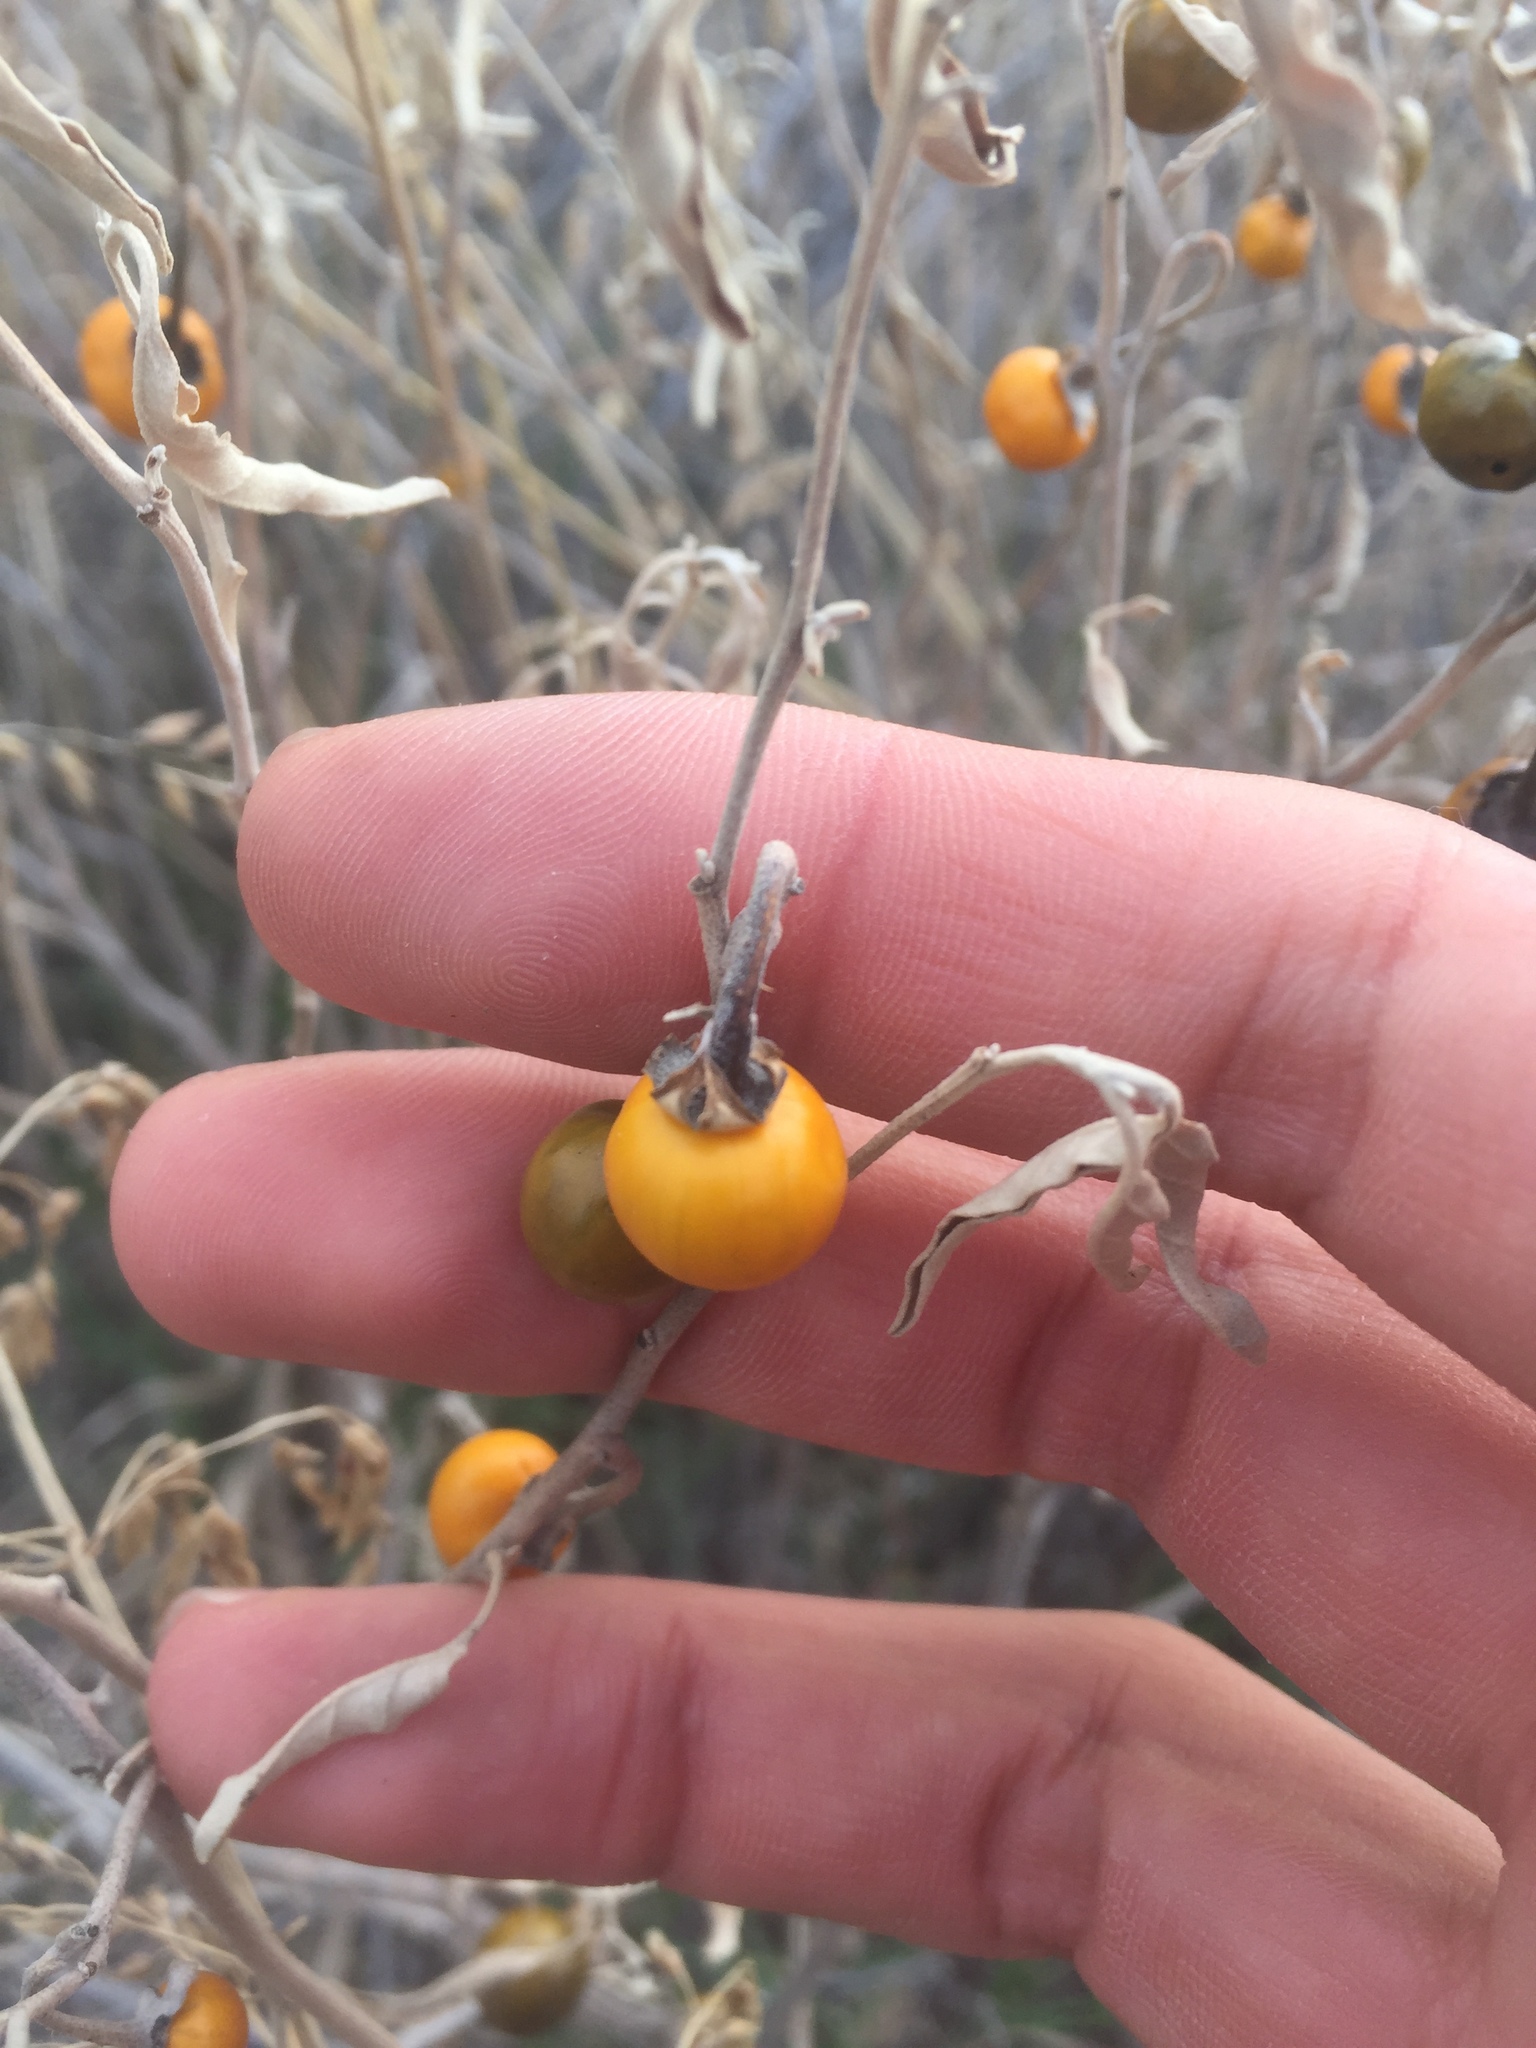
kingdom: Plantae
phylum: Tracheophyta
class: Magnoliopsida
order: Solanales
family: Solanaceae
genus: Solanum
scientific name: Solanum elaeagnifolium
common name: Silverleaf nightshade
